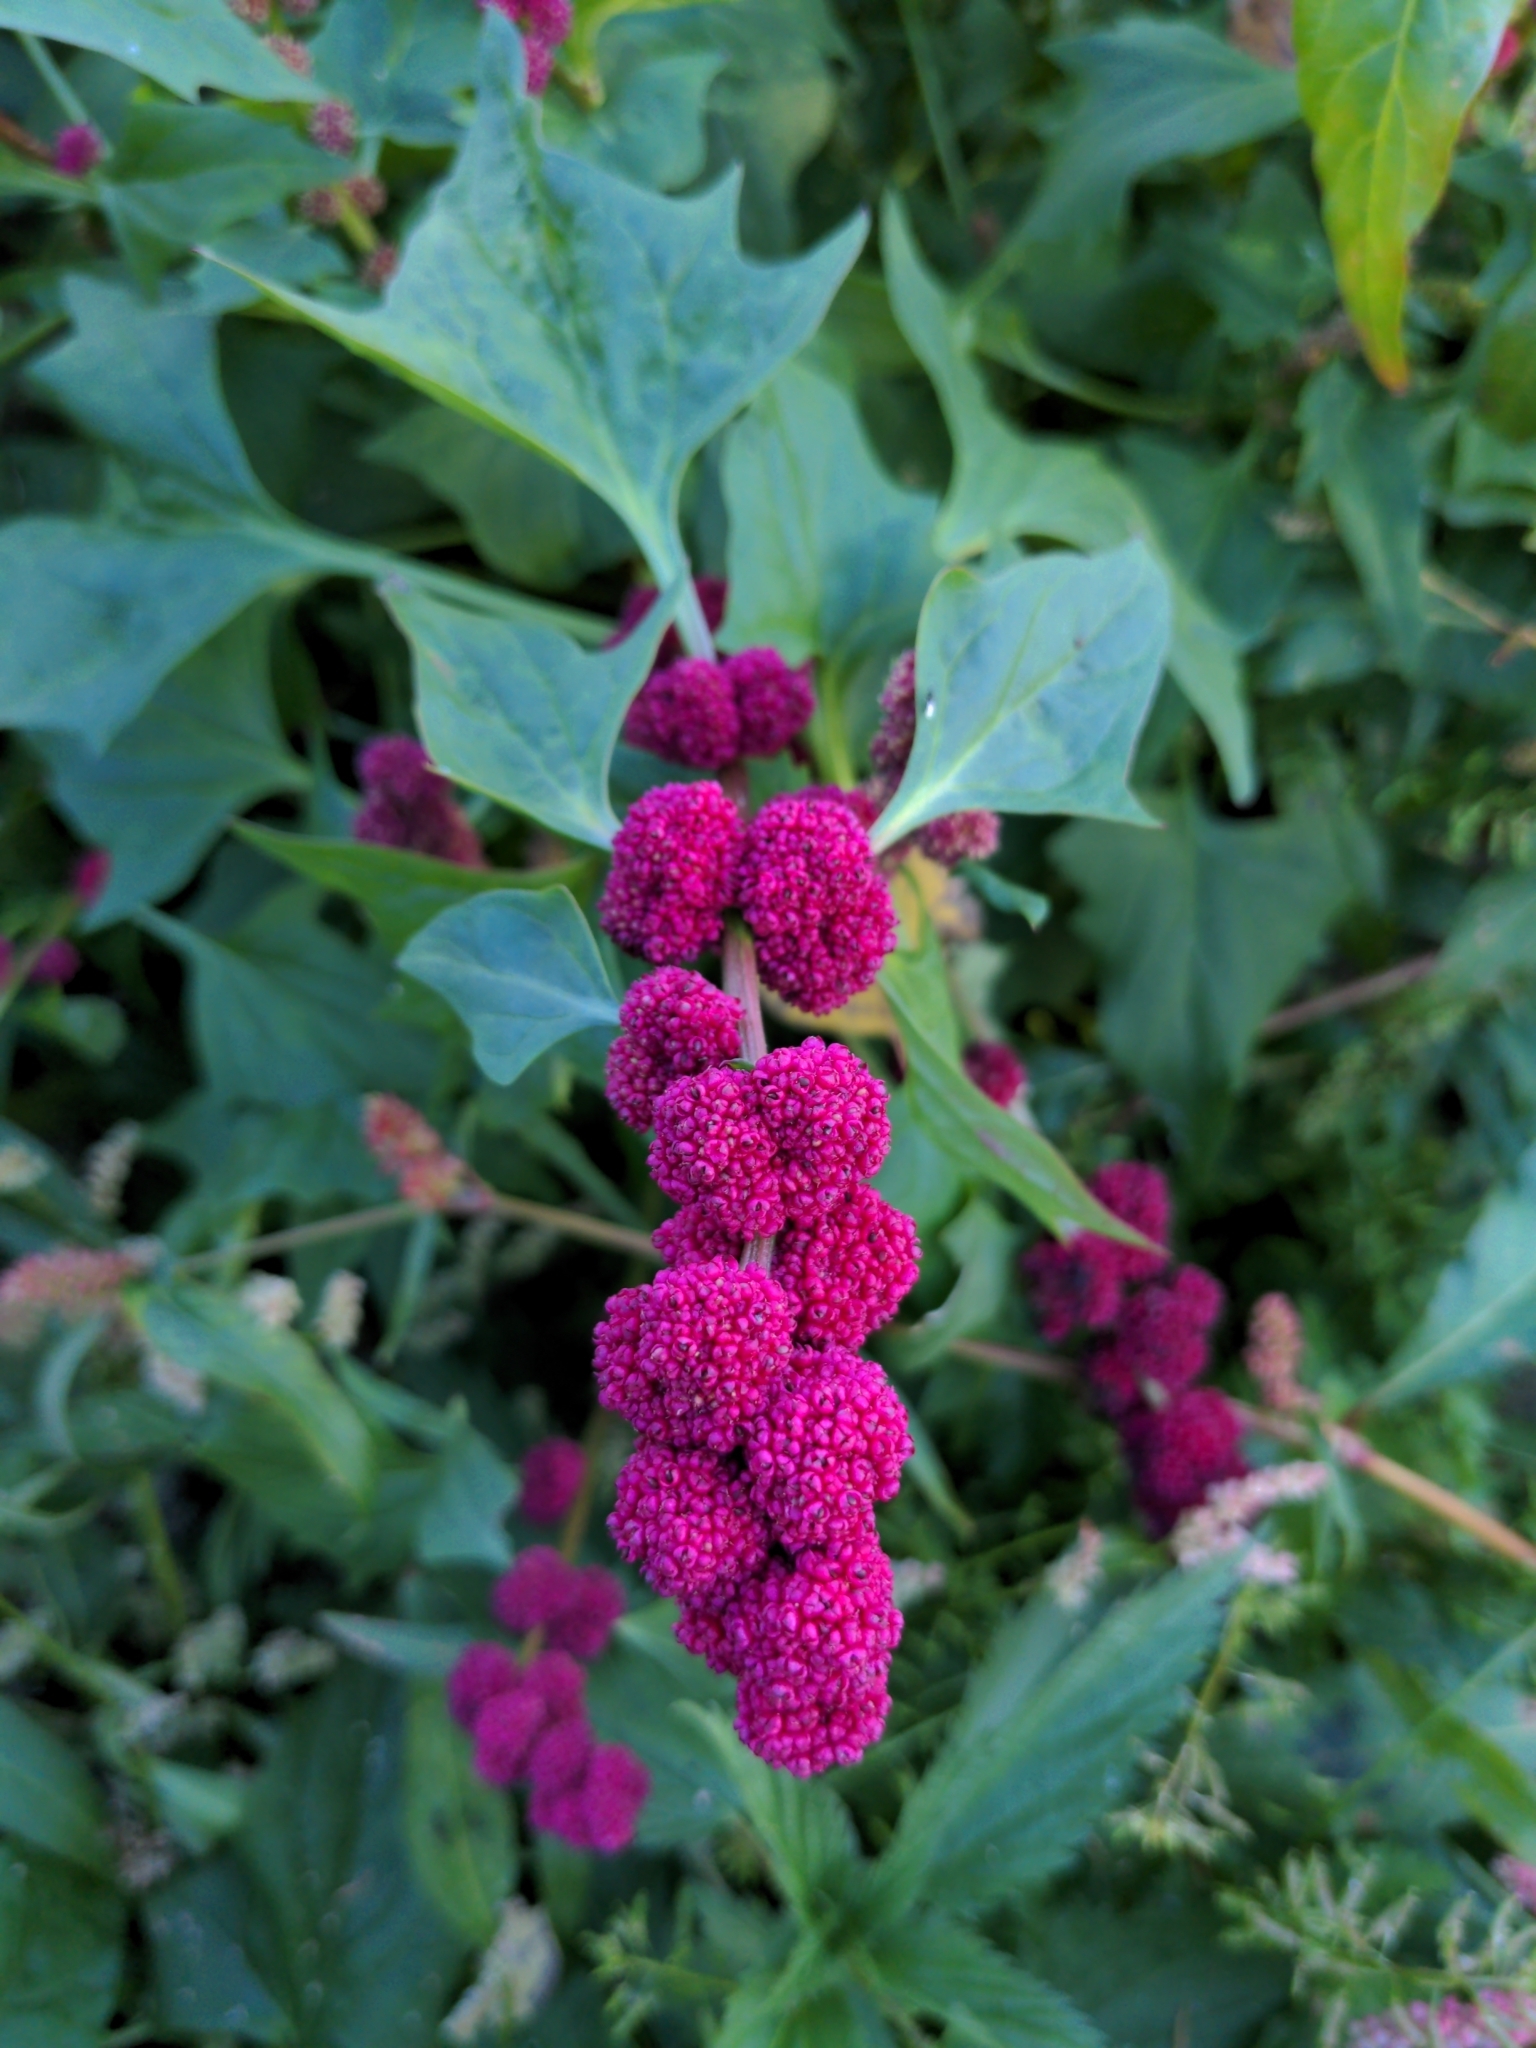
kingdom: Plantae
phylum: Tracheophyta
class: Magnoliopsida
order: Caryophyllales
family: Amaranthaceae
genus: Blitum
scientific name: Blitum capitatum
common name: Strawberry-blight
